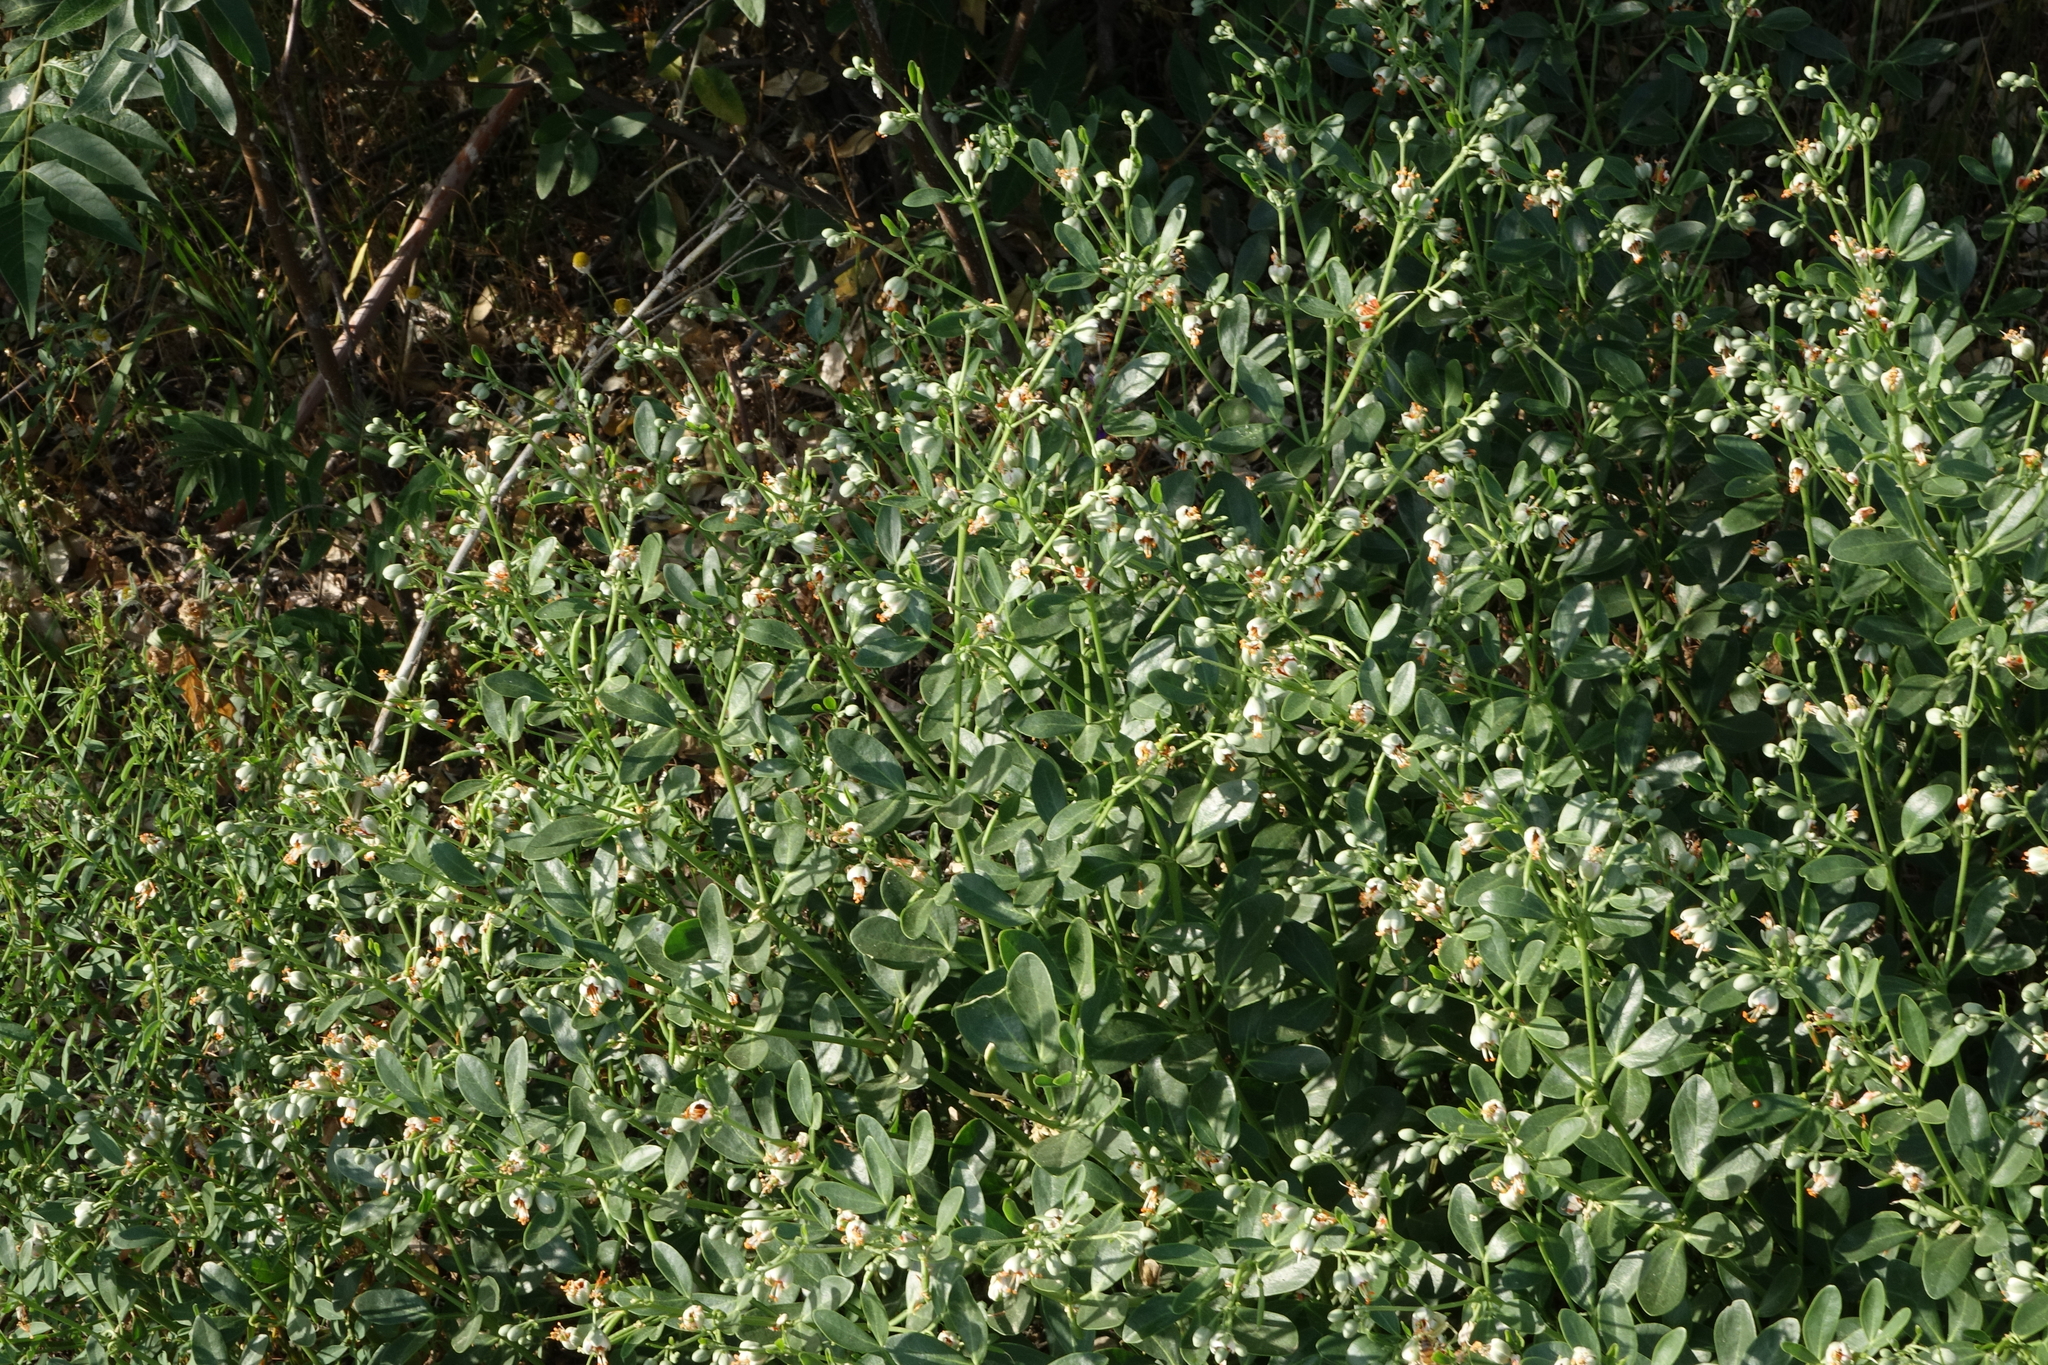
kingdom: Plantae
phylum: Tracheophyta
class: Magnoliopsida
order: Zygophyllales
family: Zygophyllaceae
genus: Zygophyllum
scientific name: Zygophyllum fabago
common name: Syrian beancaper
